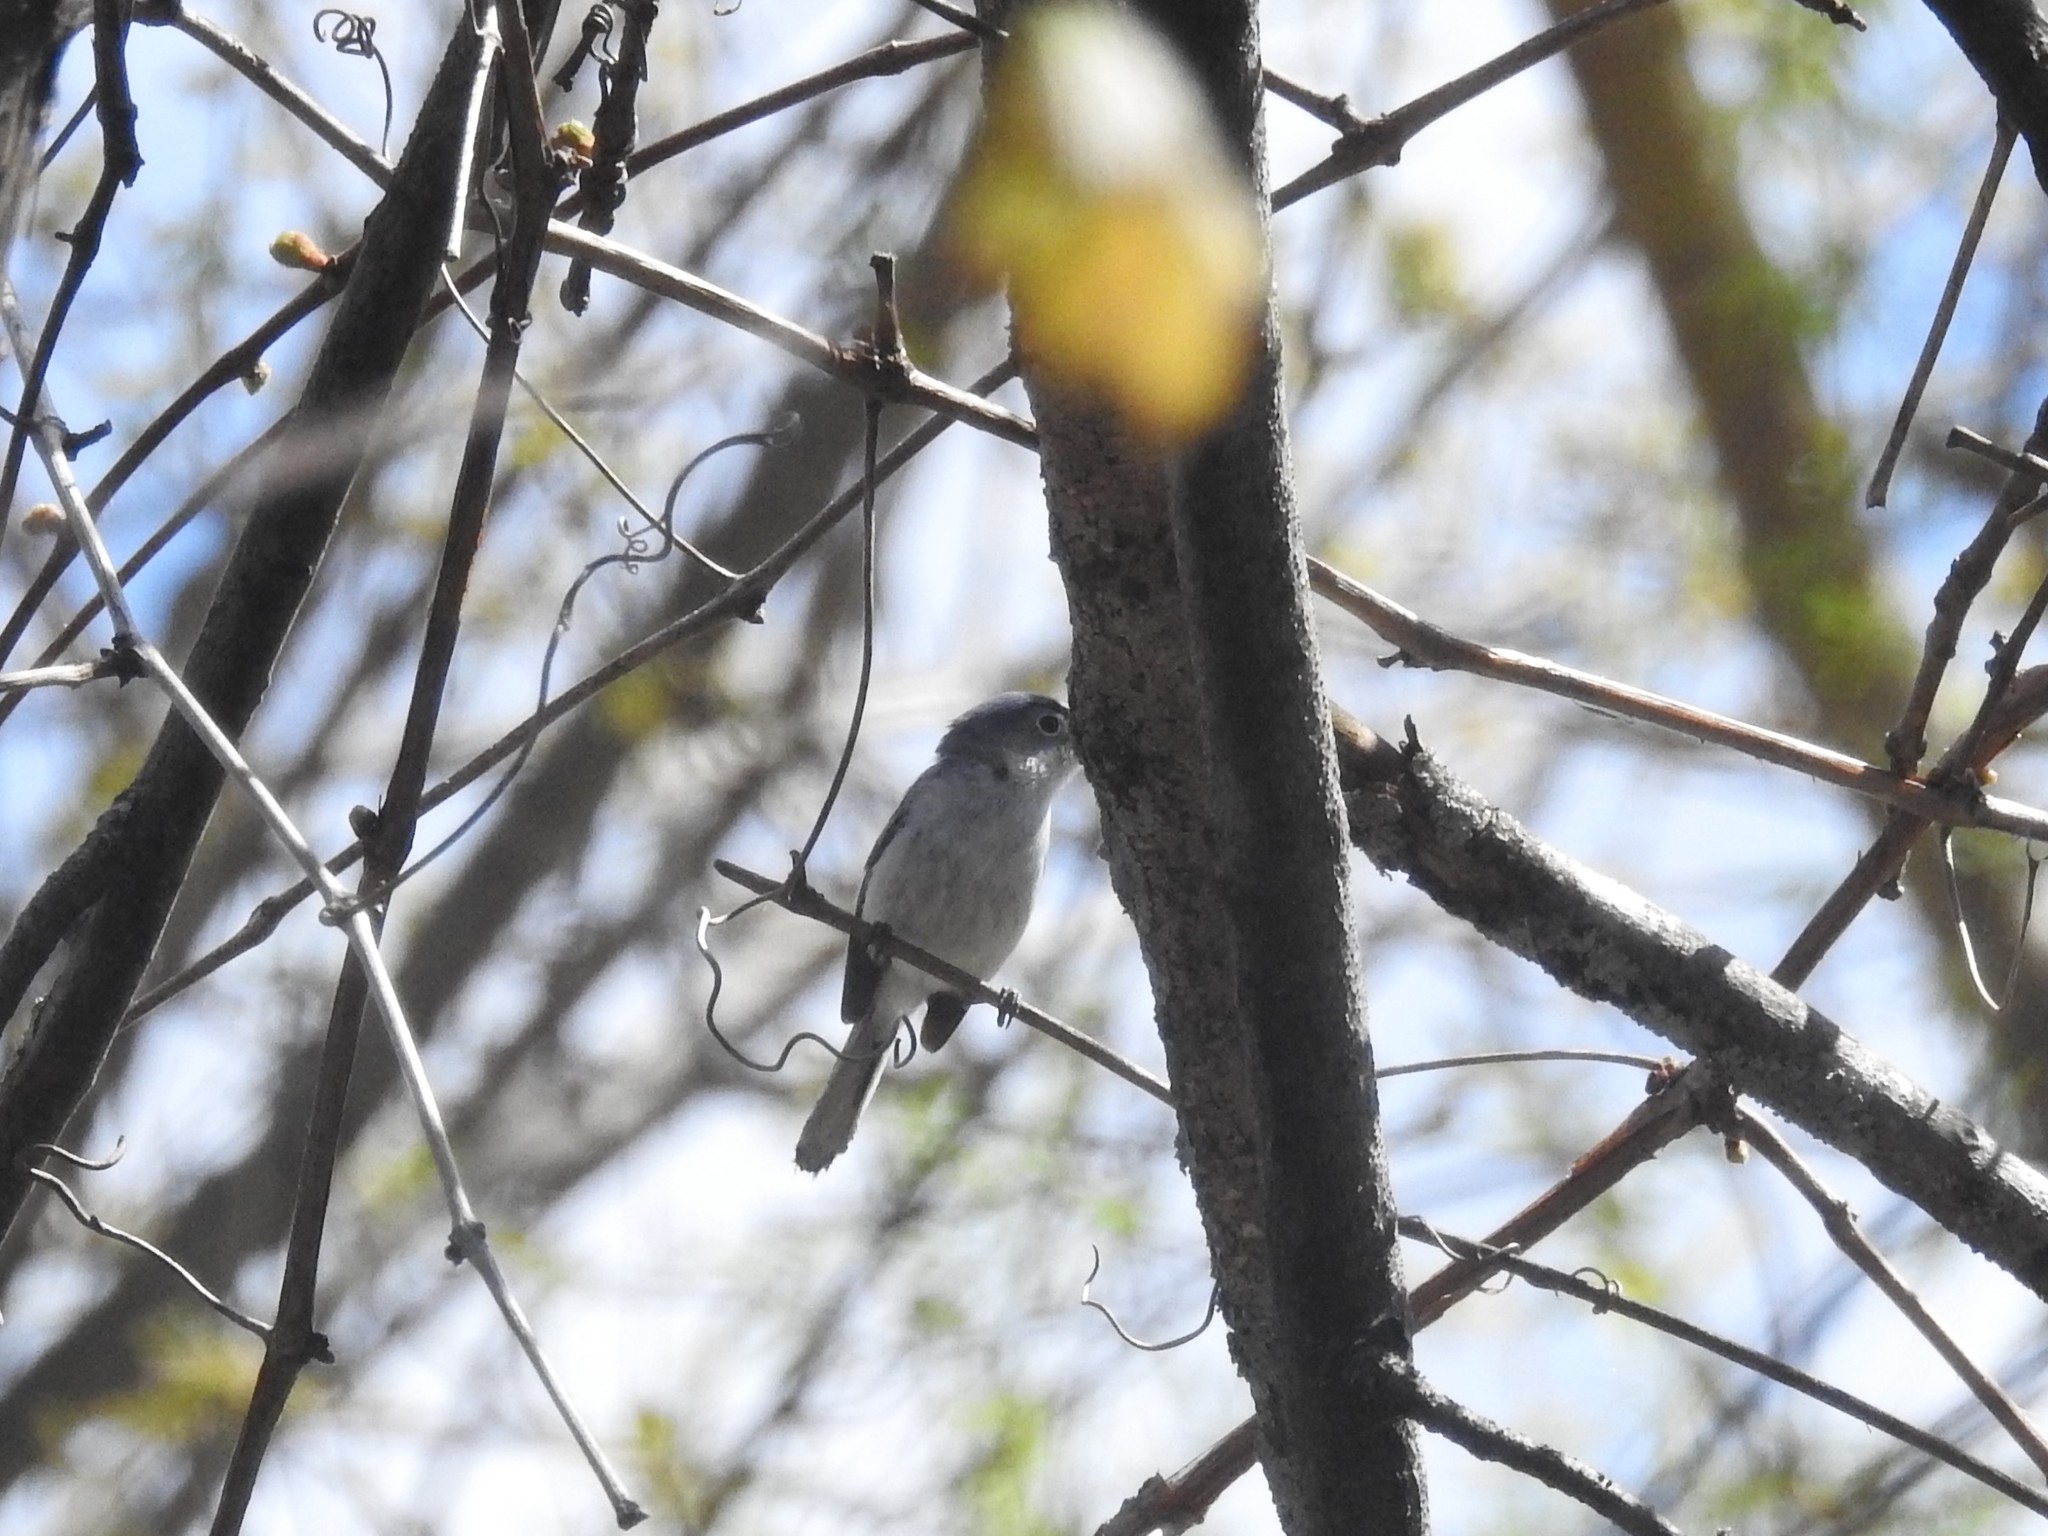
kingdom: Animalia
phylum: Chordata
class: Aves
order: Passeriformes
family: Polioptilidae
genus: Polioptila
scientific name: Polioptila caerulea
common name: Blue-gray gnatcatcher
